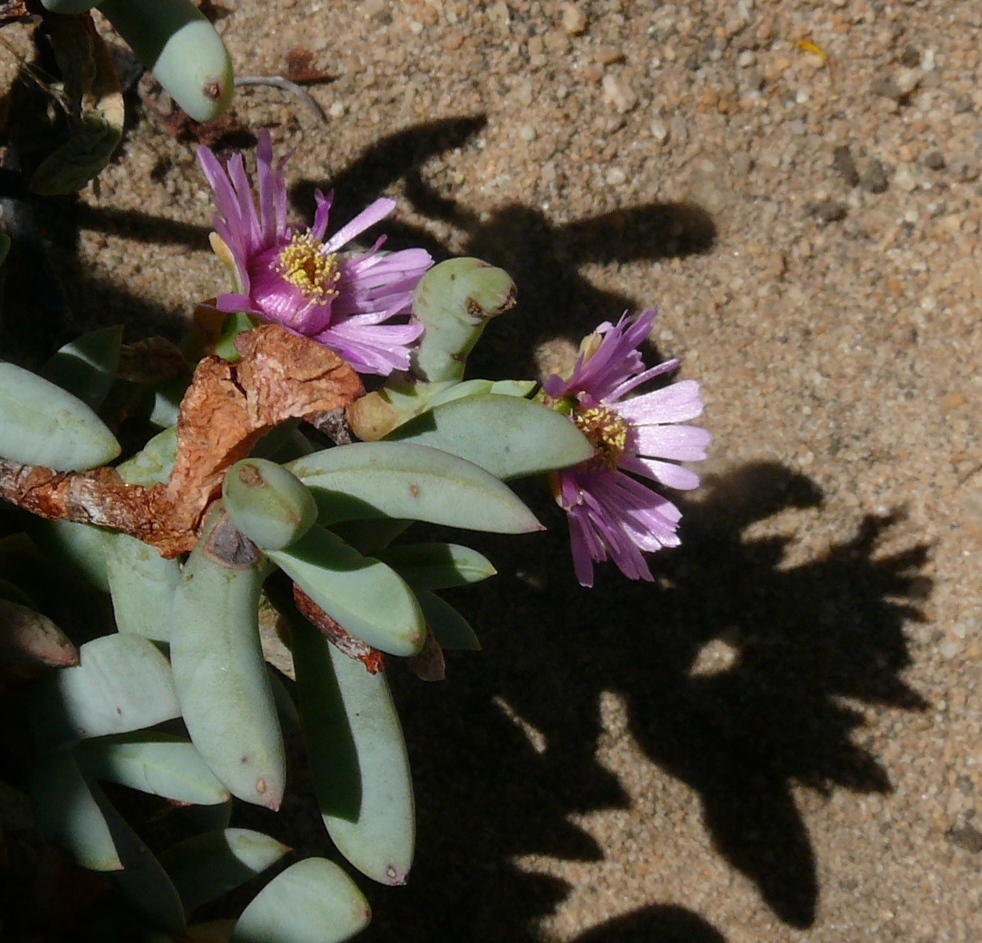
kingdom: Plantae
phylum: Tracheophyta
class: Magnoliopsida
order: Caryophyllales
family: Aizoaceae
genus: Phiambolia
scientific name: Phiambolia mentiens
